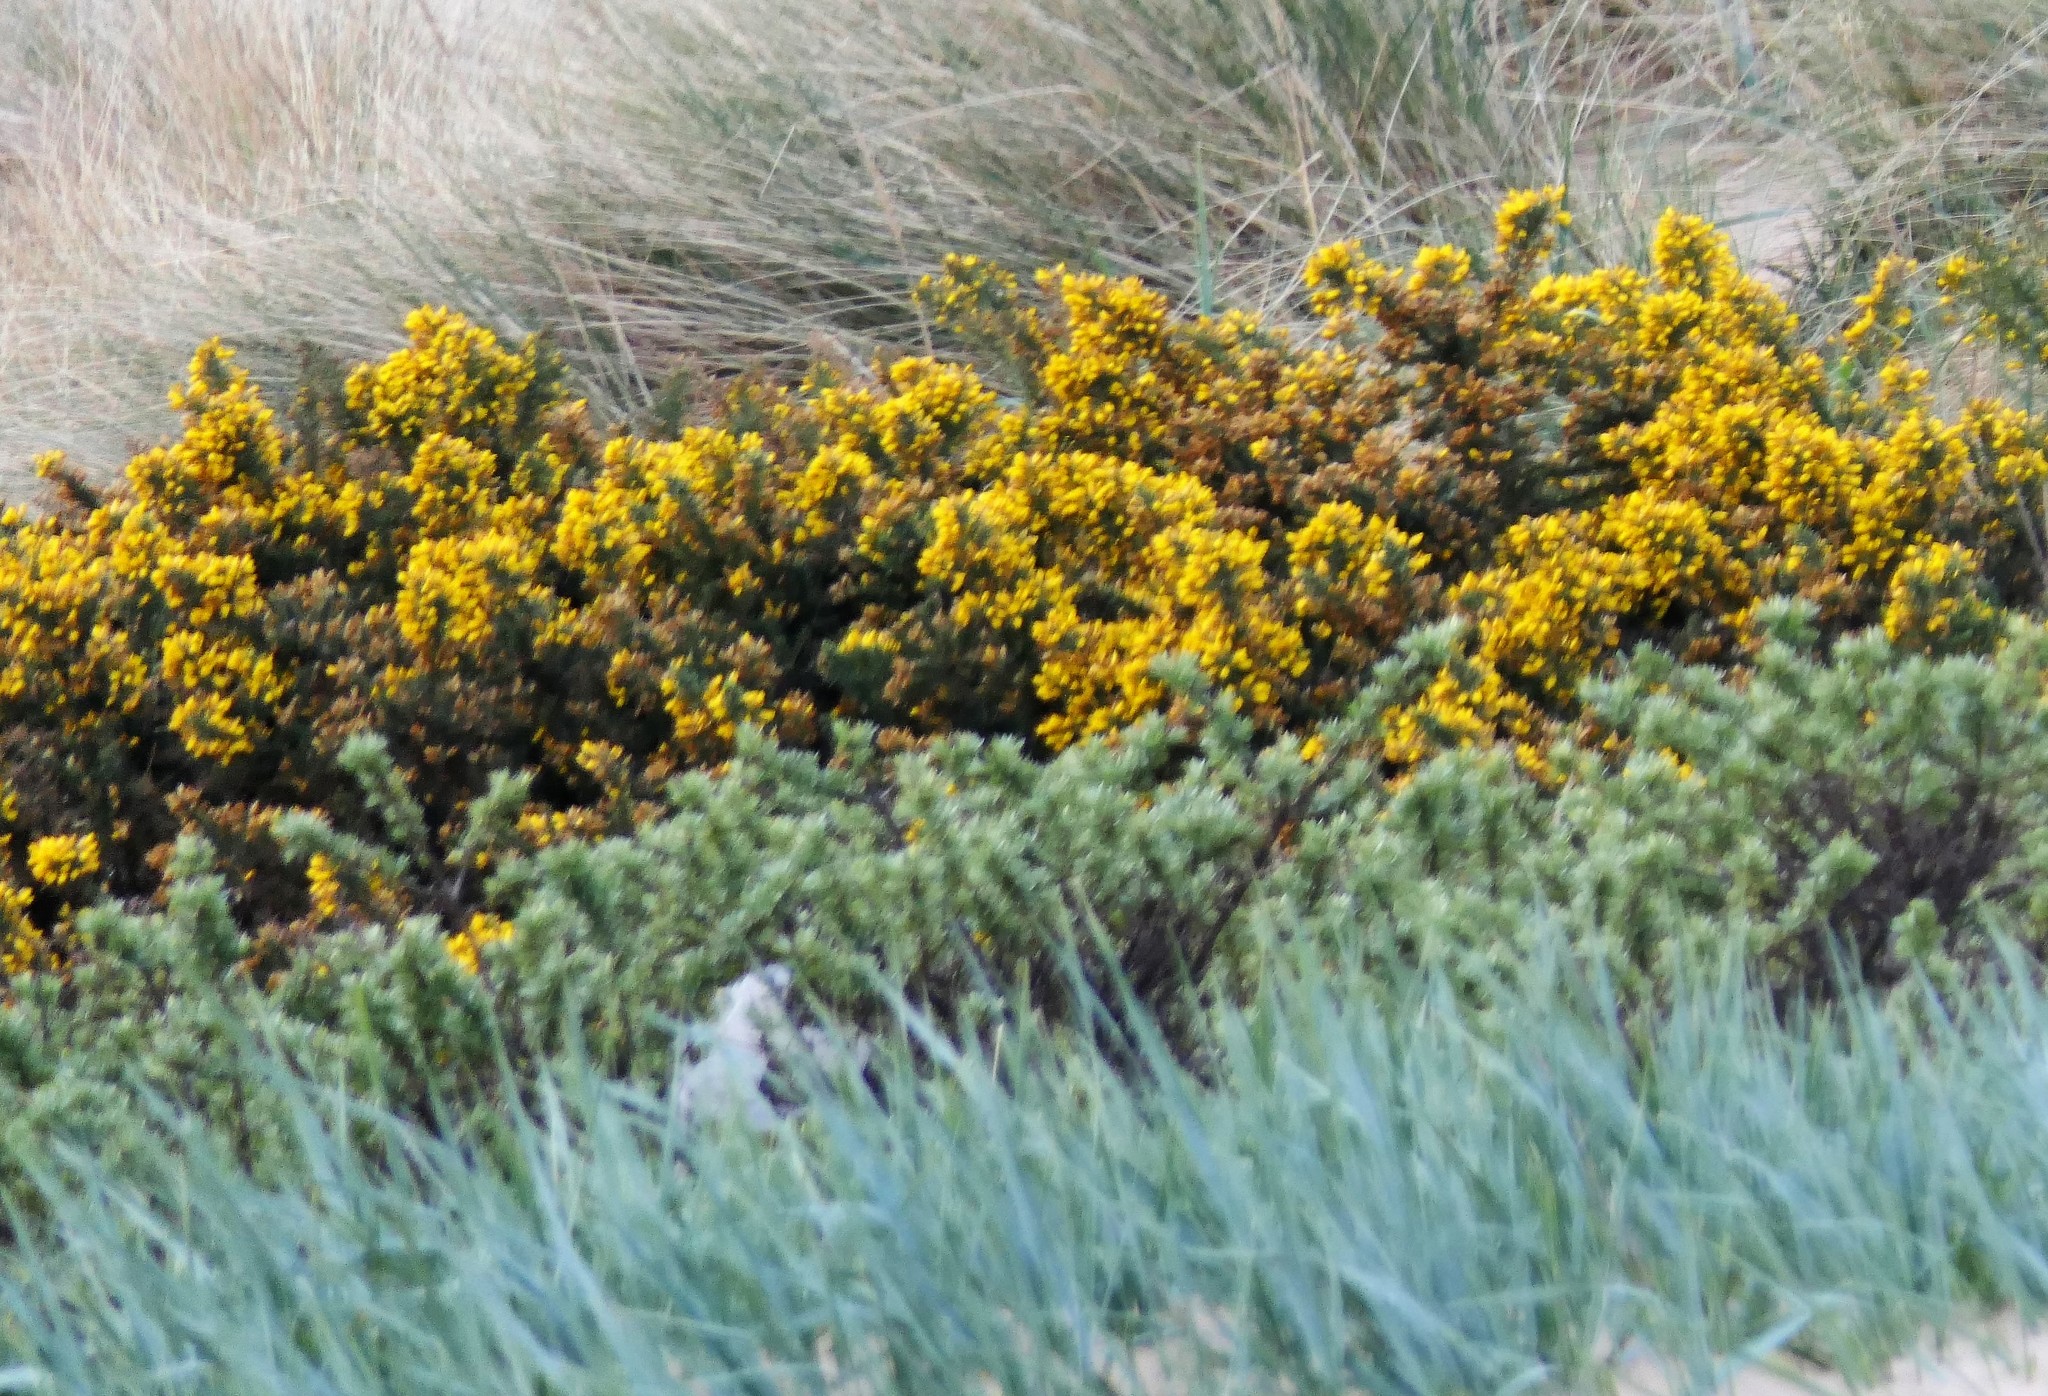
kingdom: Plantae
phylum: Tracheophyta
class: Magnoliopsida
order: Fabales
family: Fabaceae
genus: Ulex
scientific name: Ulex europaeus
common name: Common gorse
